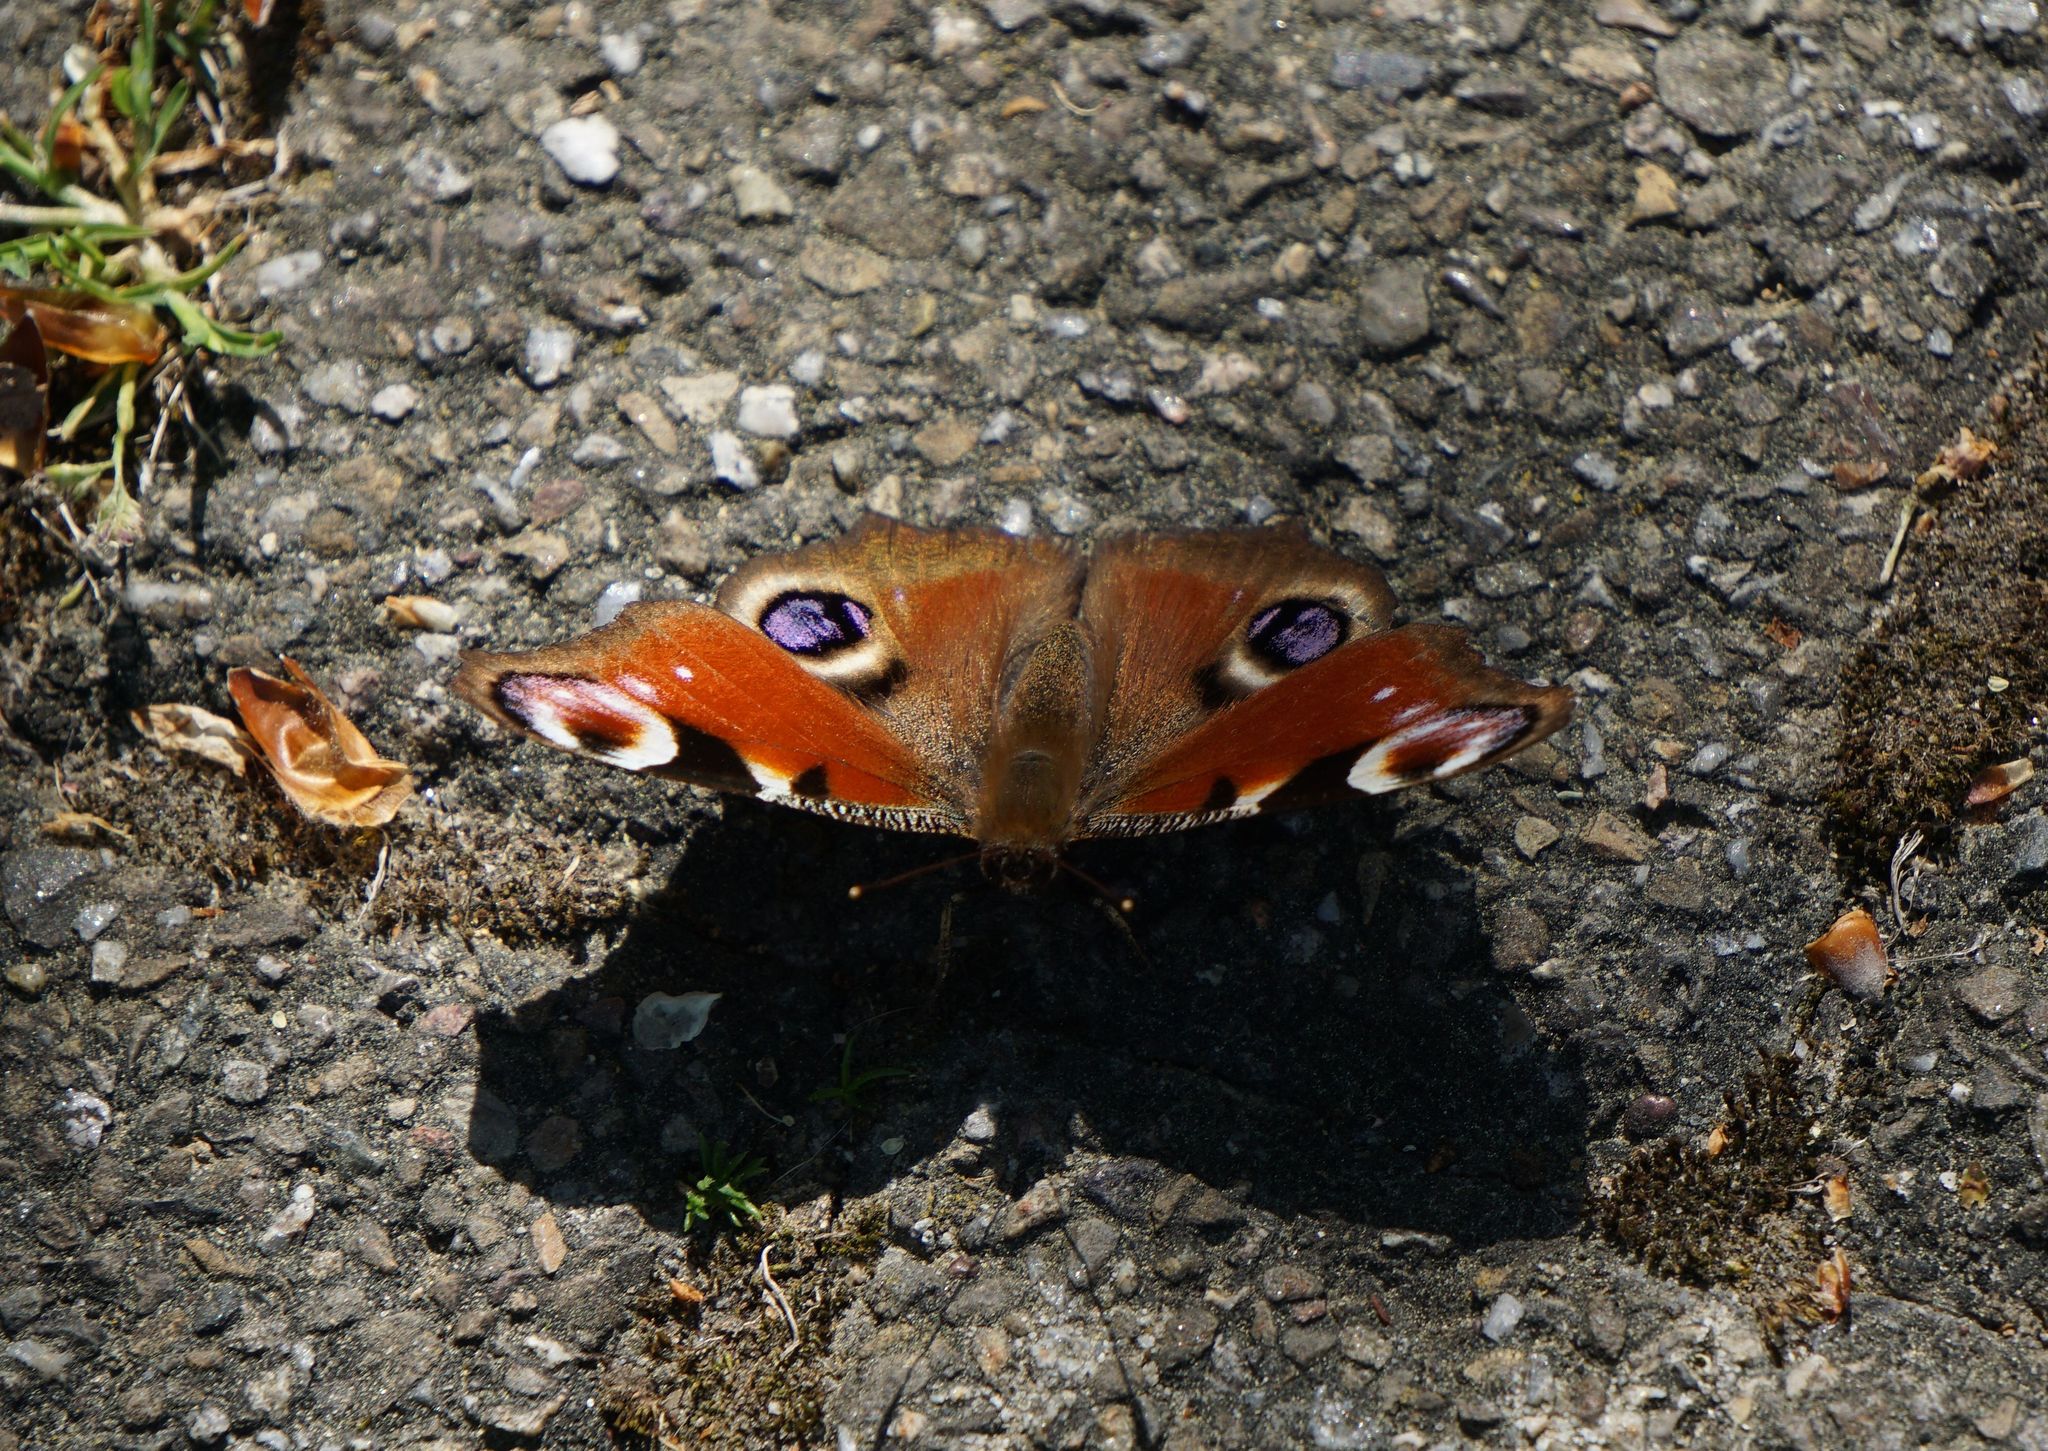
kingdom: Animalia
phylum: Arthropoda
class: Insecta
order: Lepidoptera
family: Nymphalidae
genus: Aglais
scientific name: Aglais io
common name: Peacock
